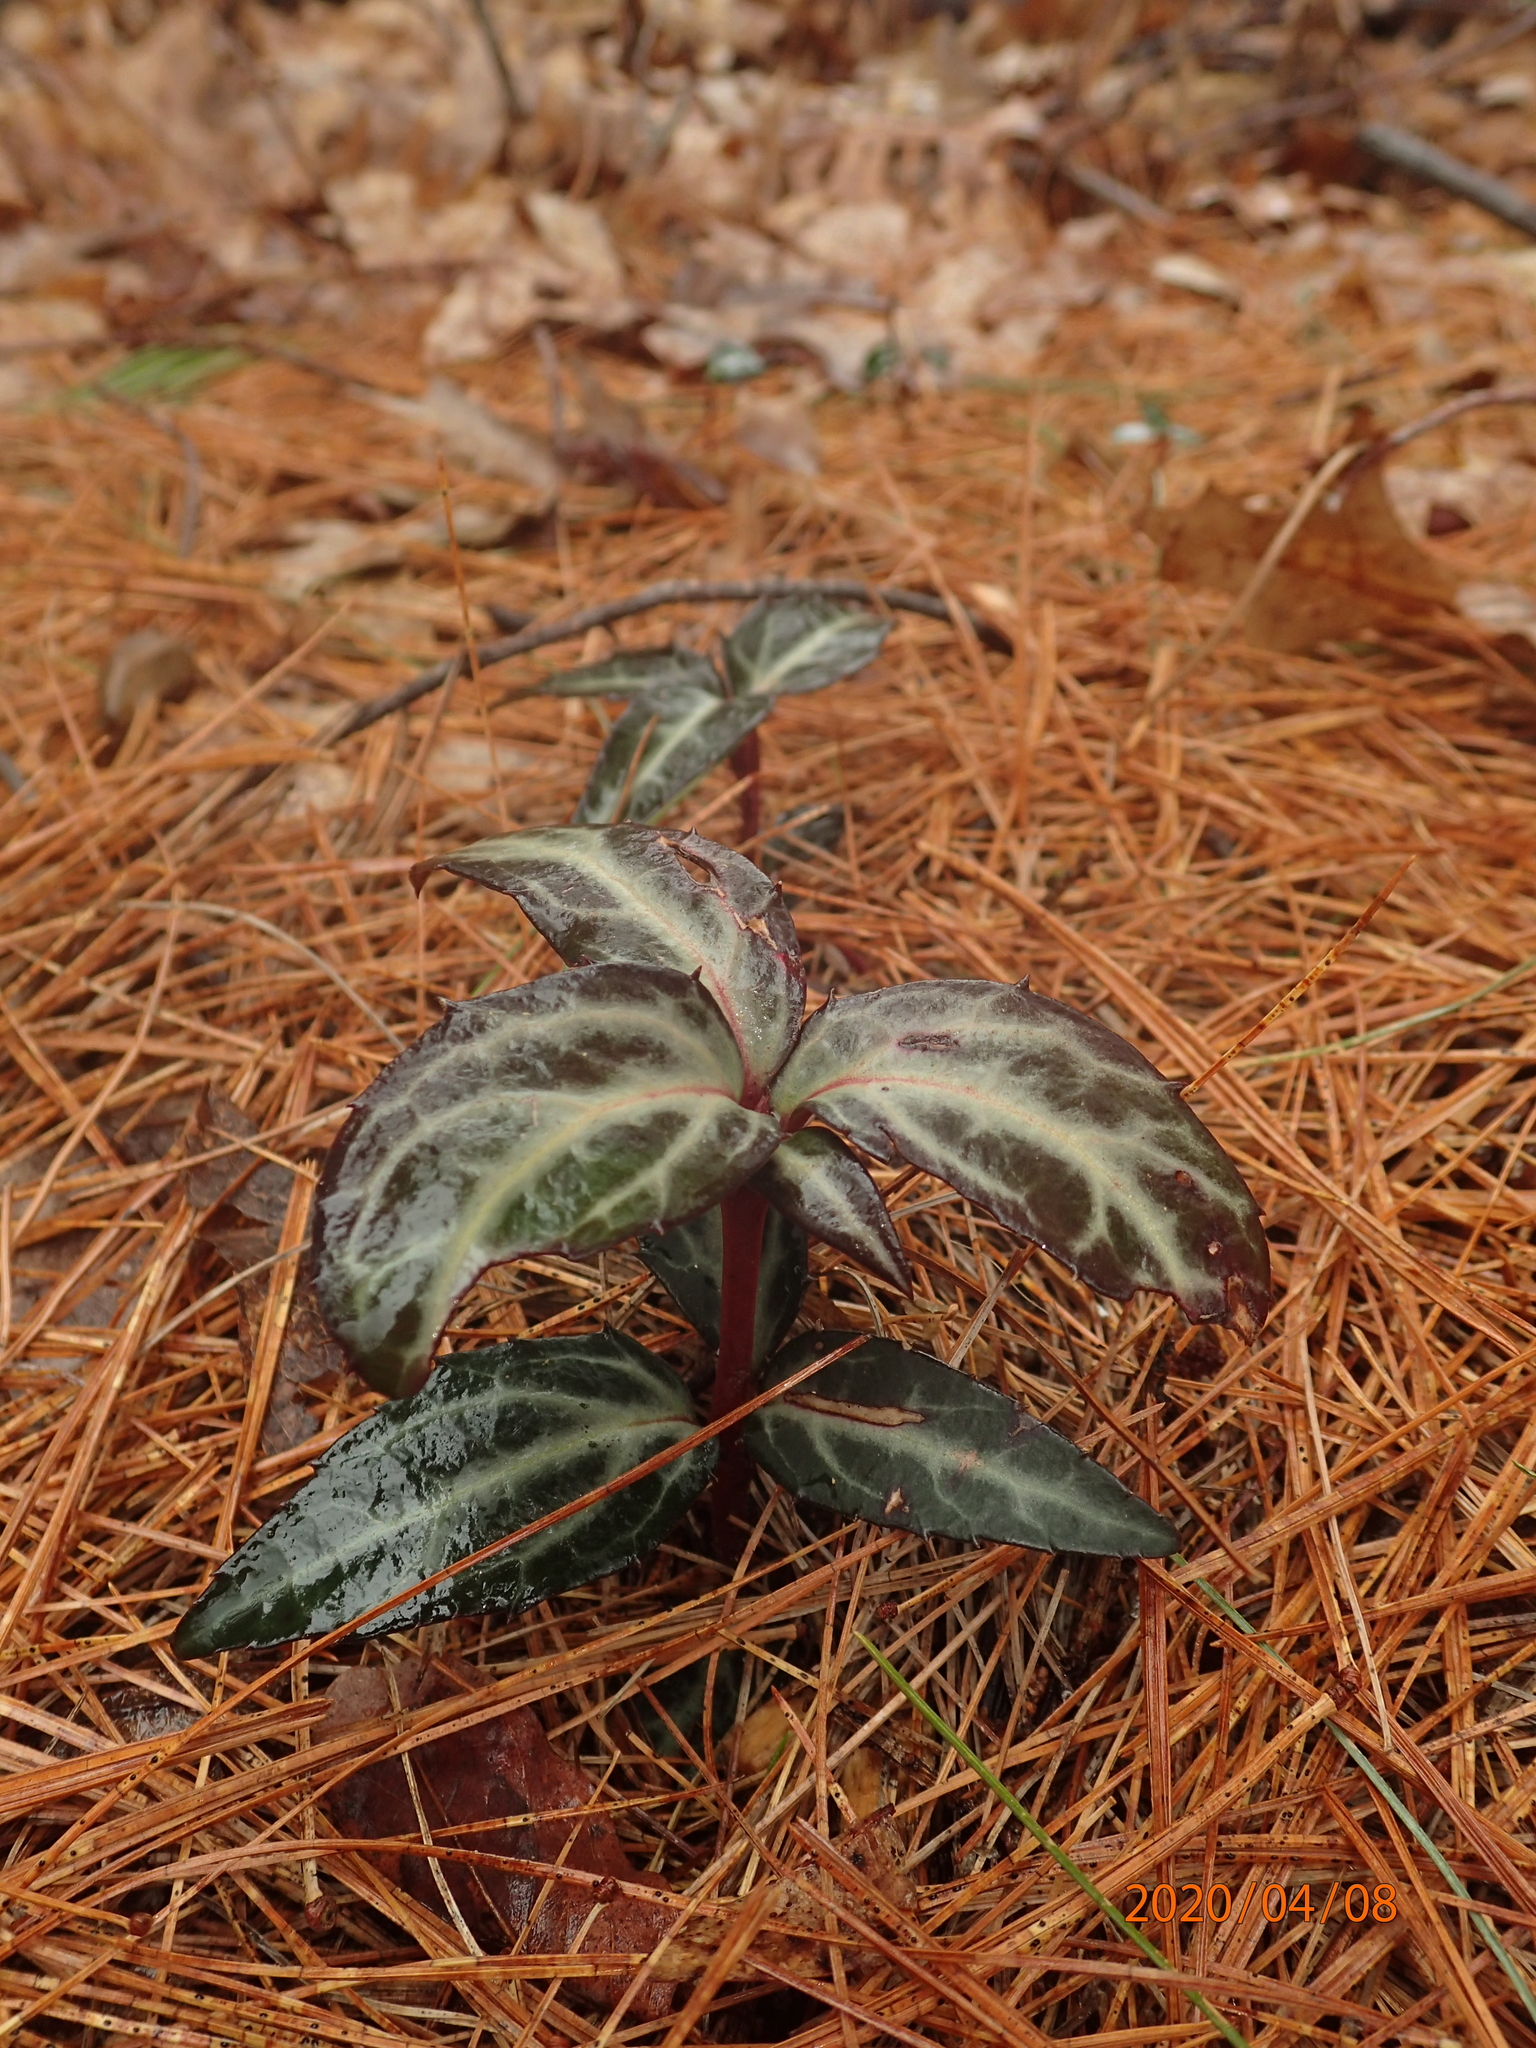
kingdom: Plantae
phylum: Tracheophyta
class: Magnoliopsida
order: Ericales
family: Ericaceae
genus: Chimaphila
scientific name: Chimaphila maculata
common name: Spotted pipsissewa
